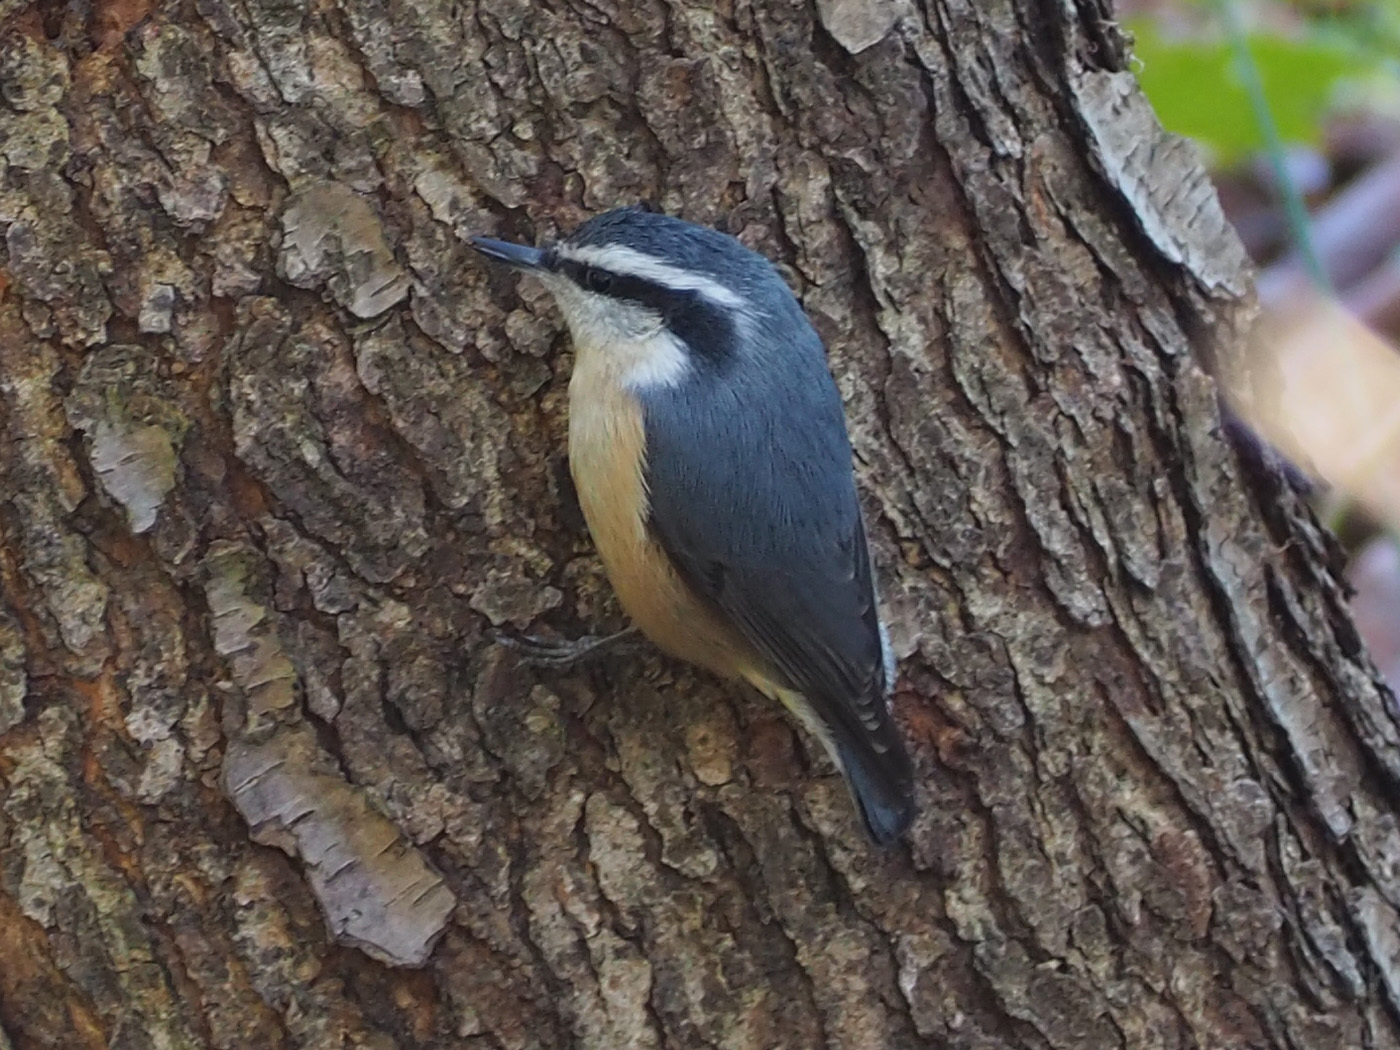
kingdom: Animalia
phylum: Chordata
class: Aves
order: Passeriformes
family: Sittidae
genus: Sitta
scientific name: Sitta canadensis
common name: Red-breasted nuthatch
